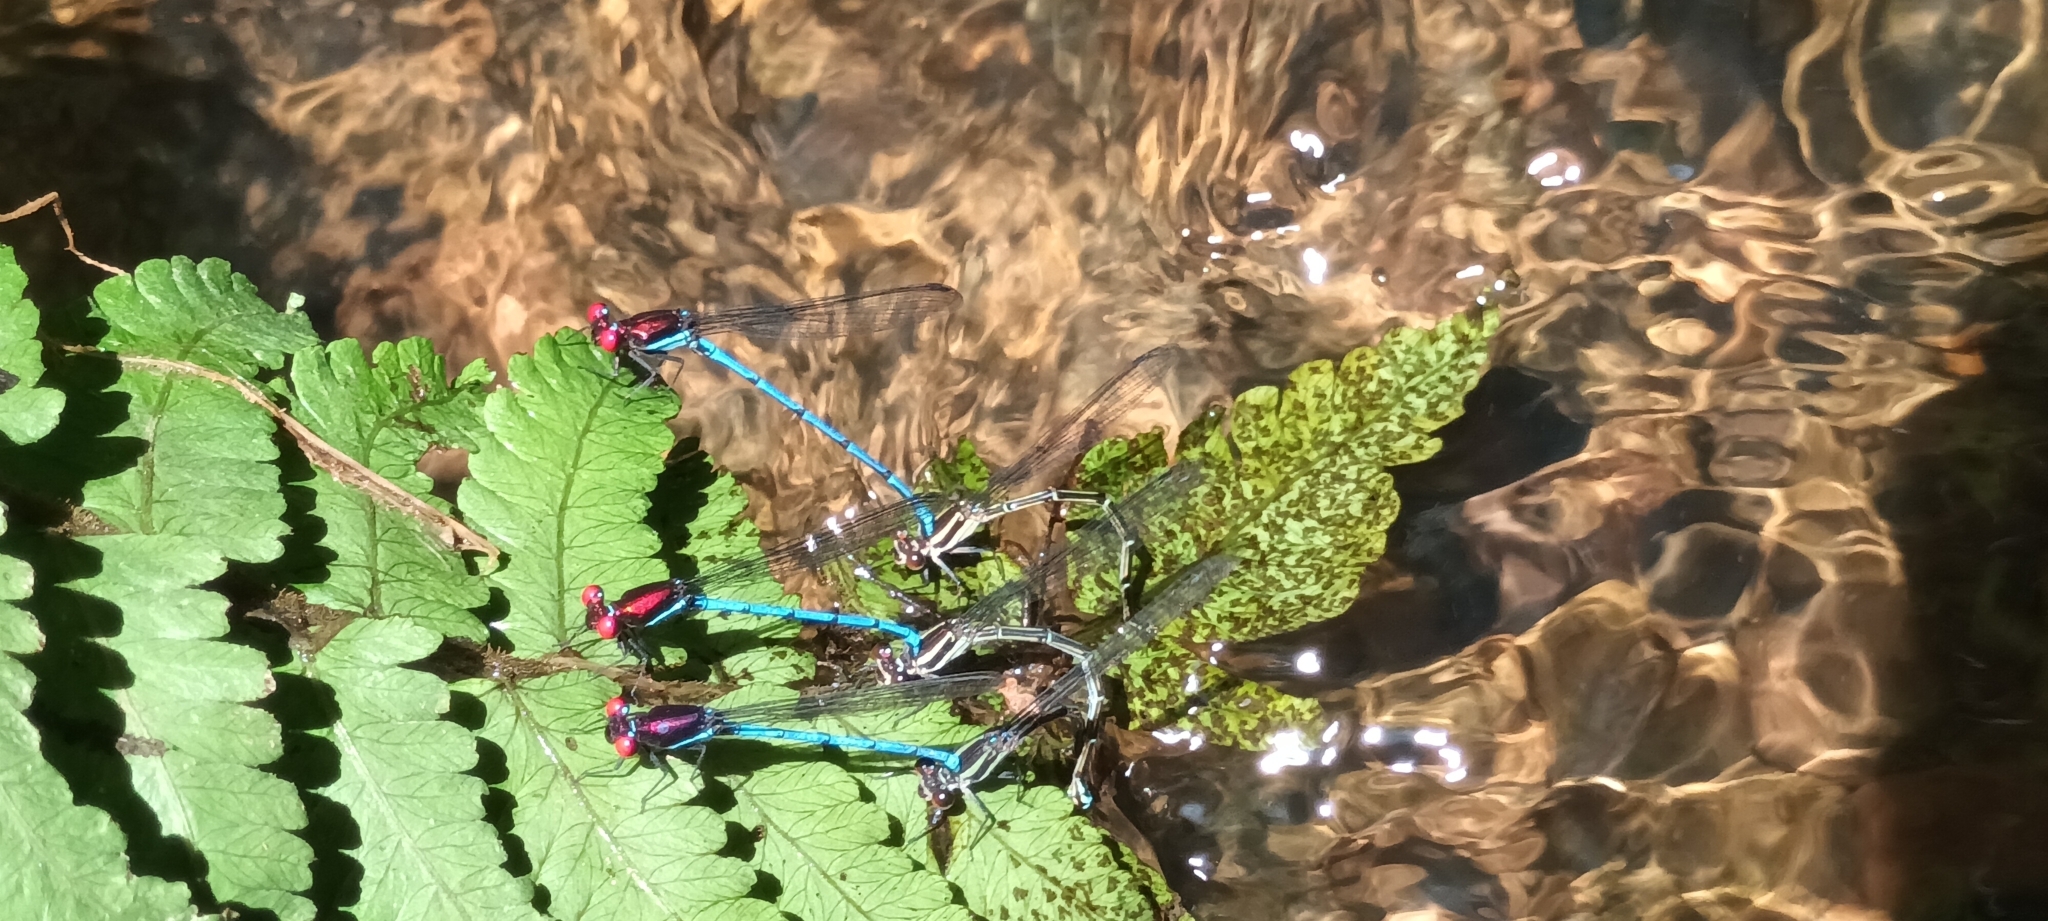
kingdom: Animalia
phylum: Arthropoda
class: Insecta
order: Odonata
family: Coenagrionidae
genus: Argia
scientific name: Argia cupraurea
